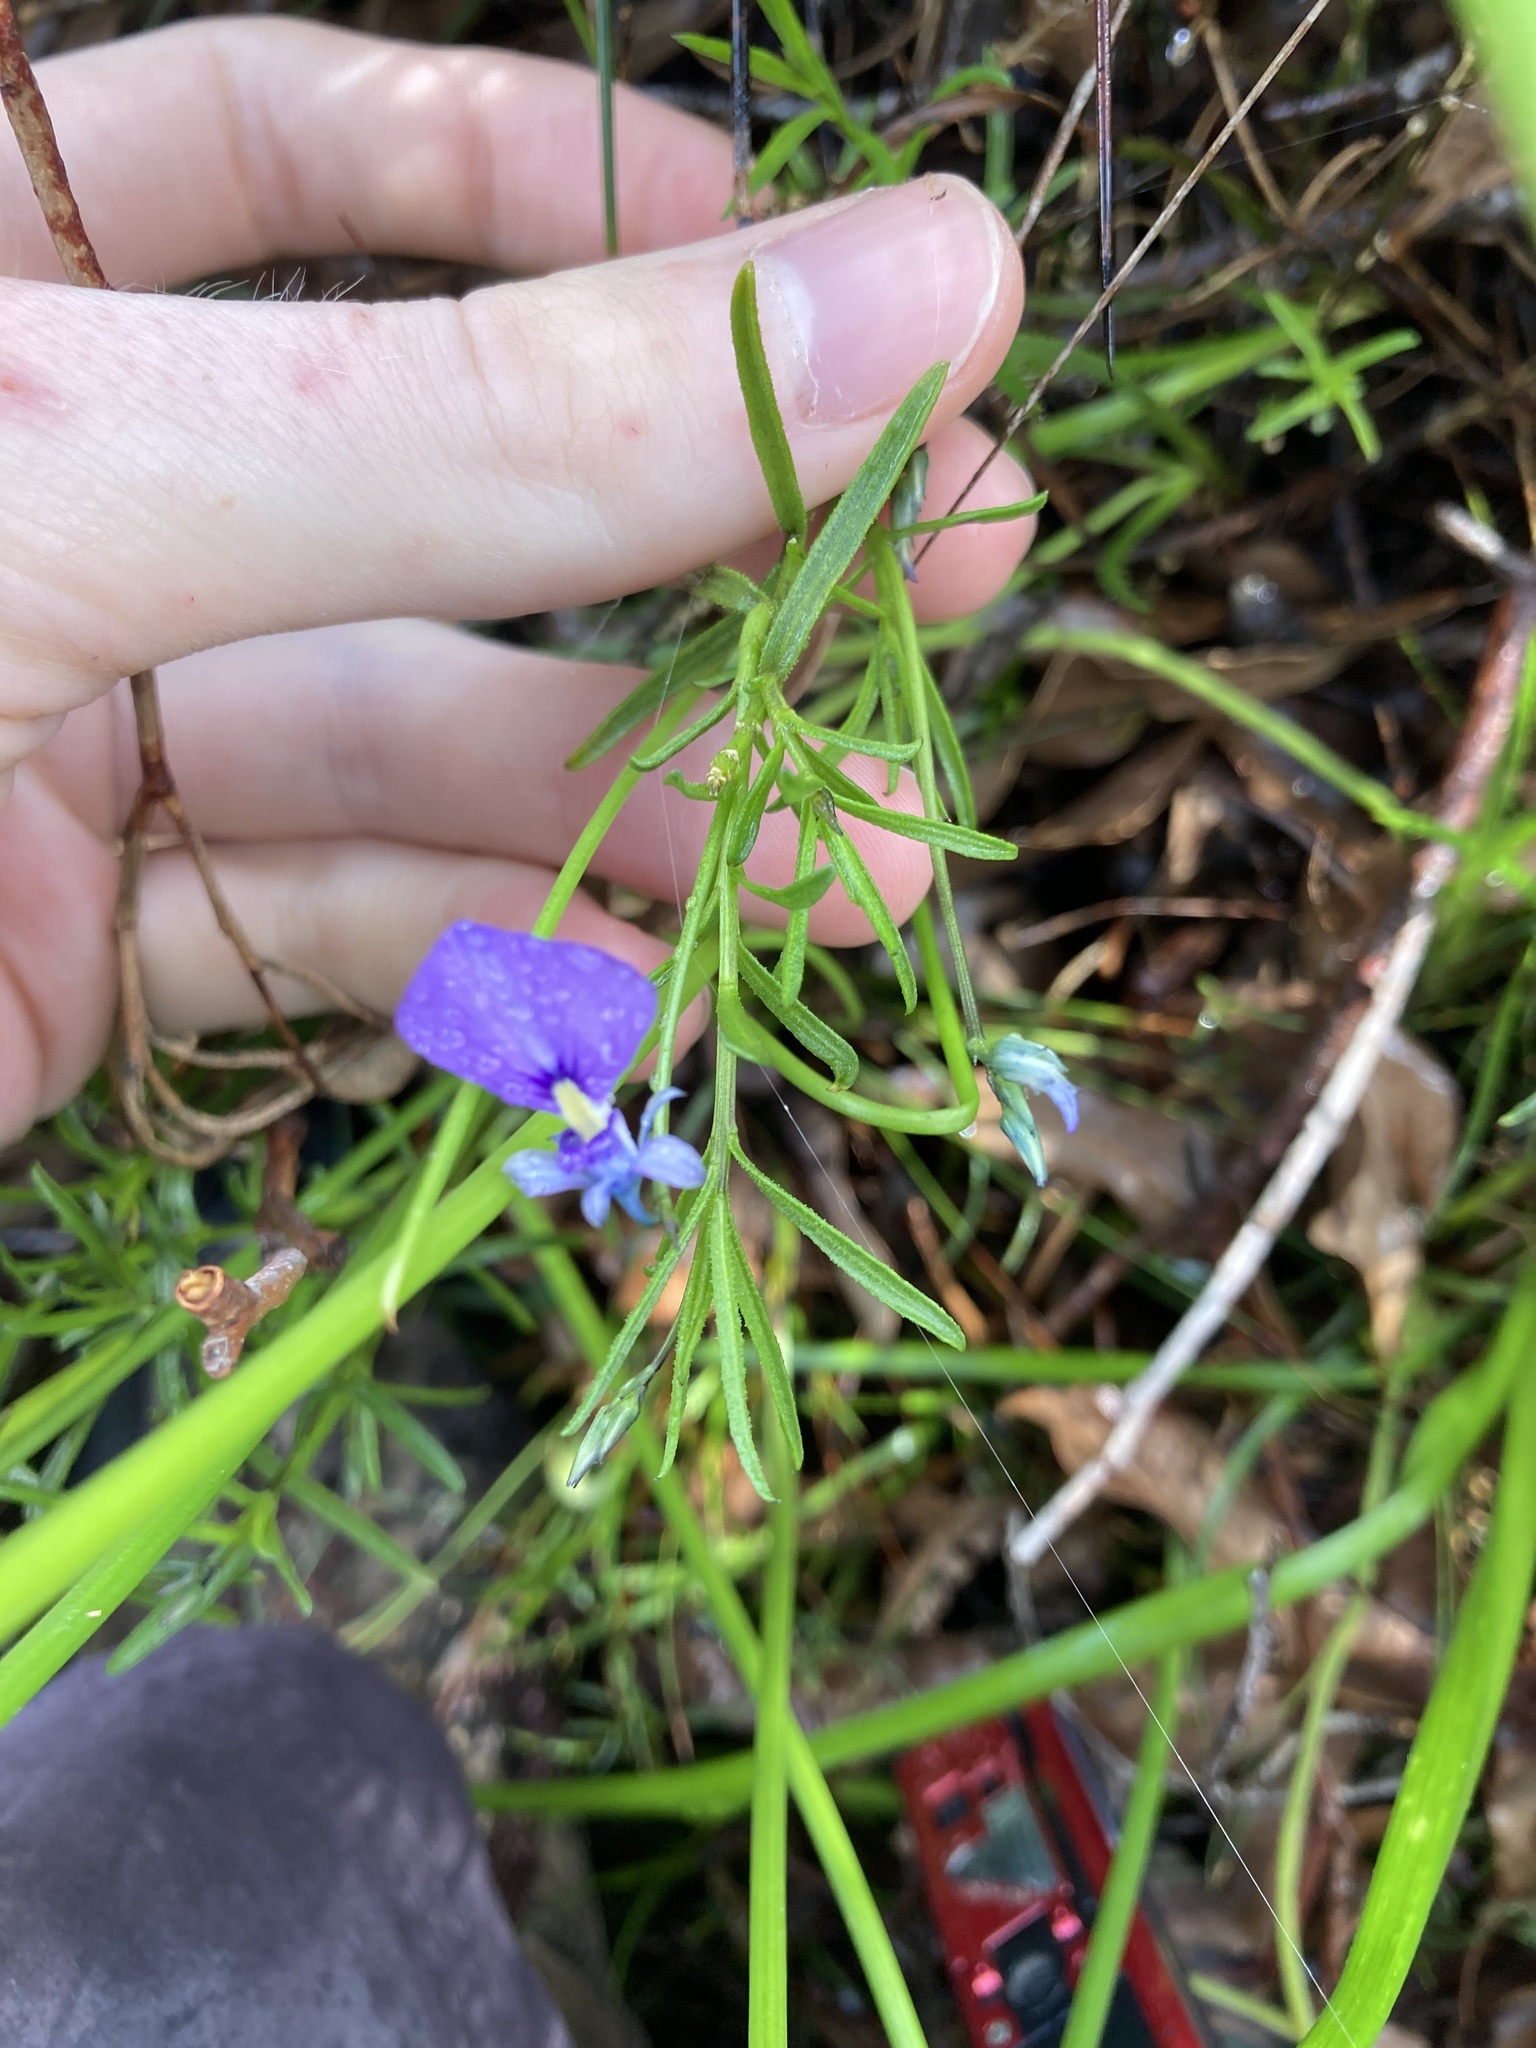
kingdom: Plantae
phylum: Tracheophyta
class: Magnoliopsida
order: Malpighiales
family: Violaceae
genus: Pigea
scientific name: Pigea calycina
